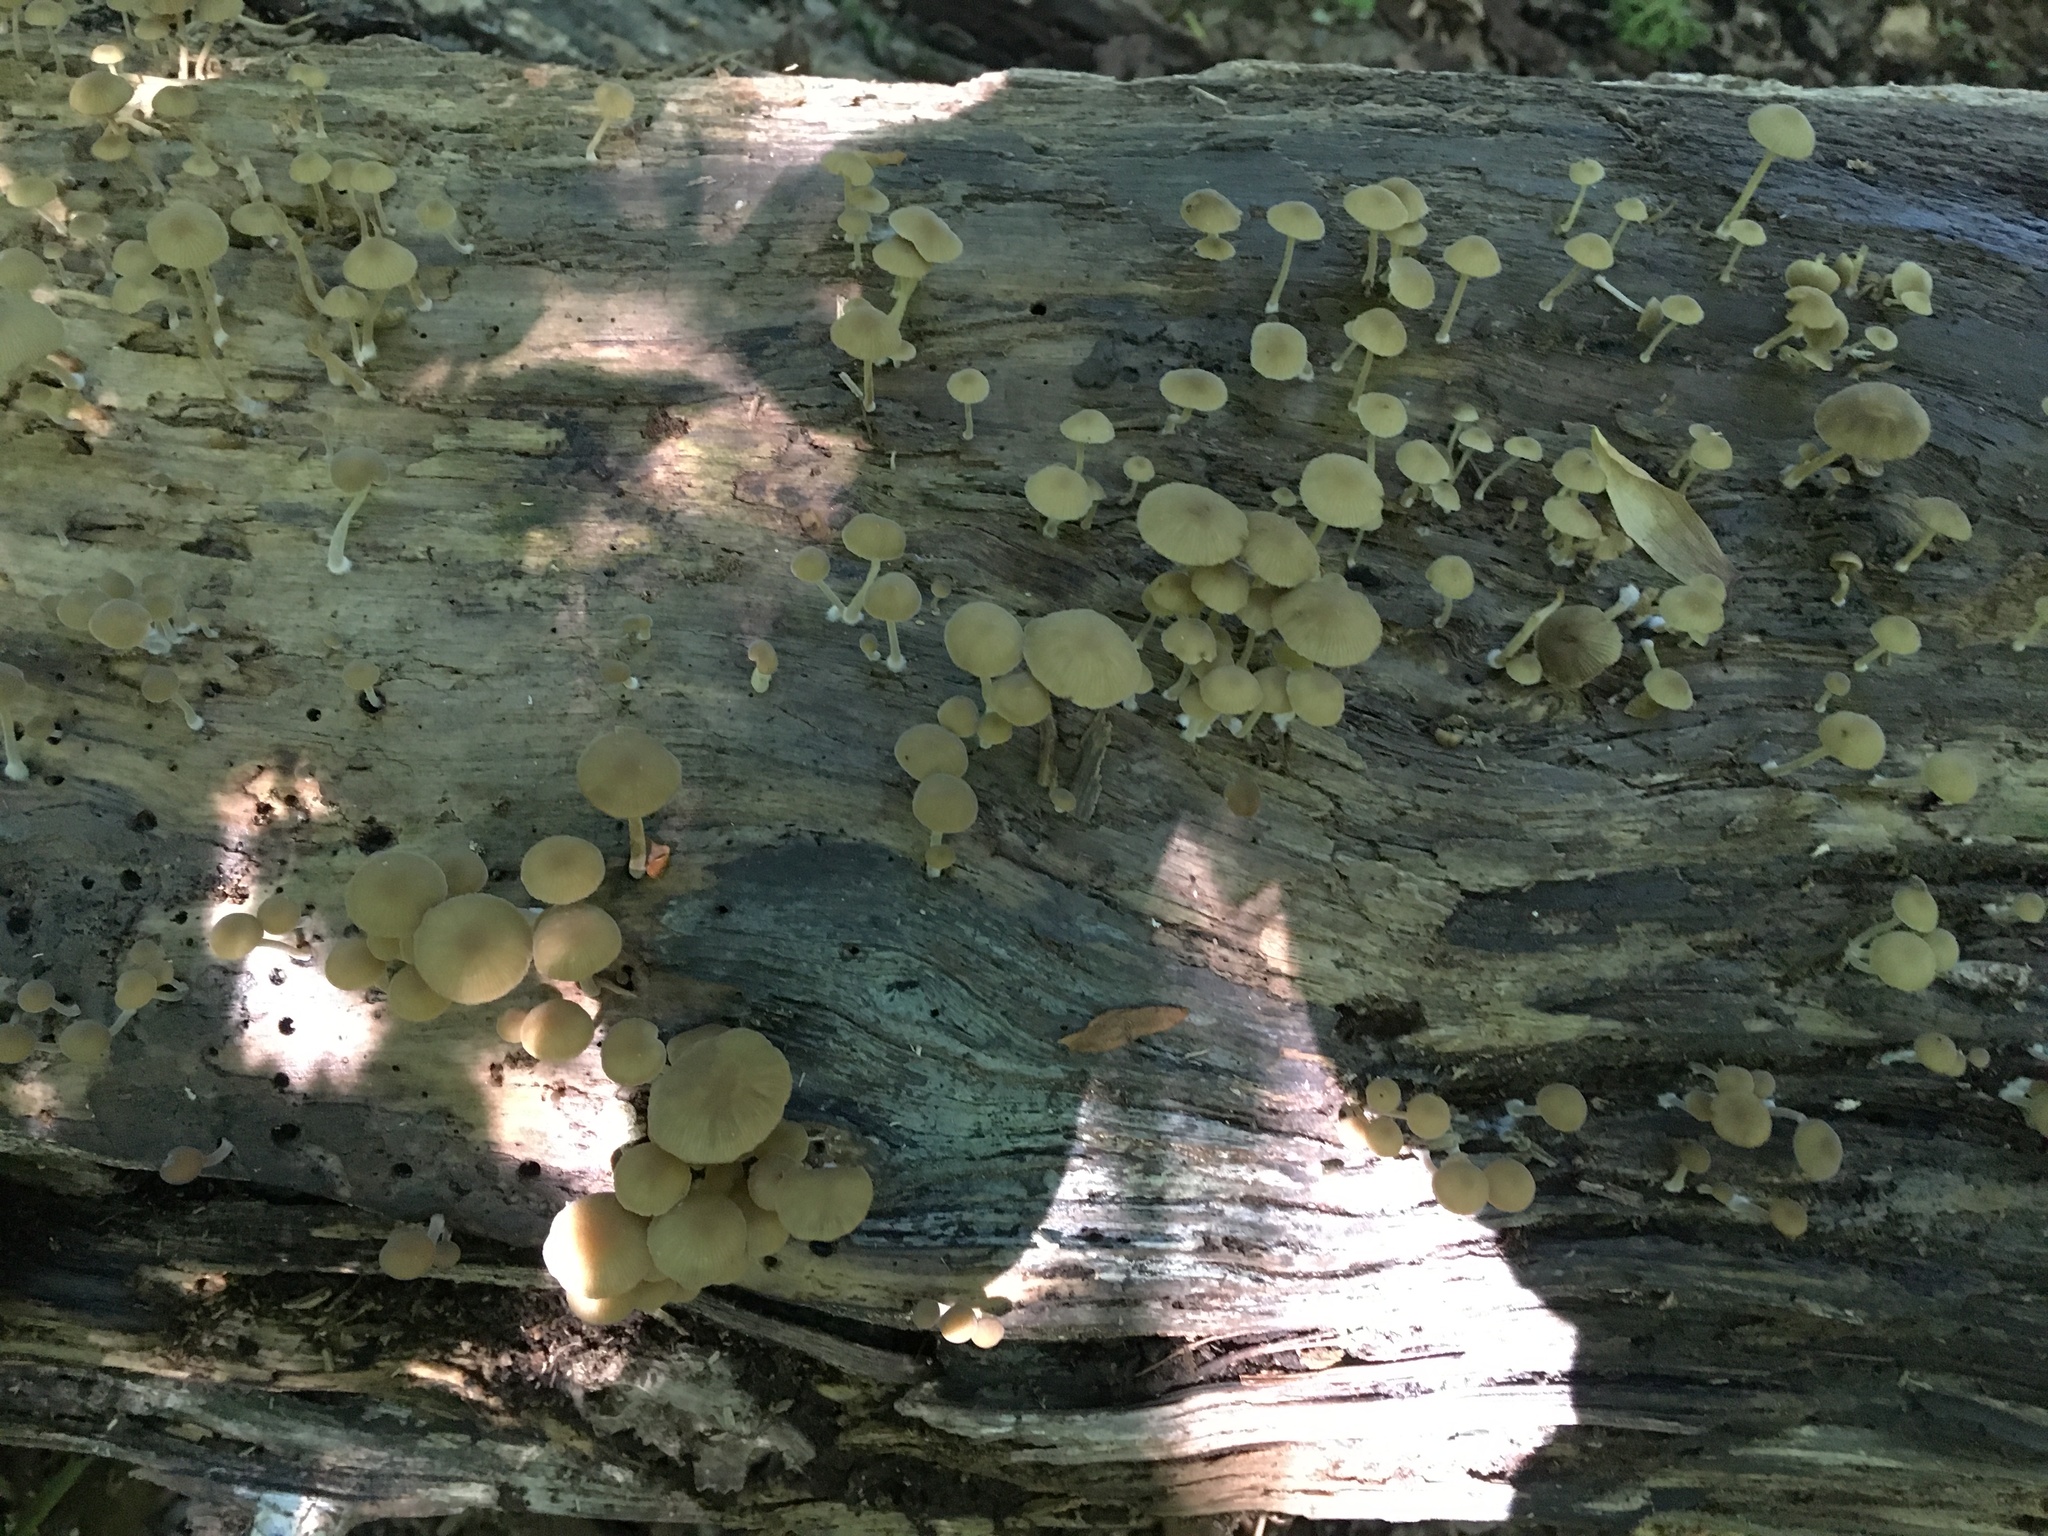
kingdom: Fungi
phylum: Basidiomycota
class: Agaricomycetes
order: Agaricales
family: Crepidotaceae
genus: Simocybe
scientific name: Simocybe centunculus
